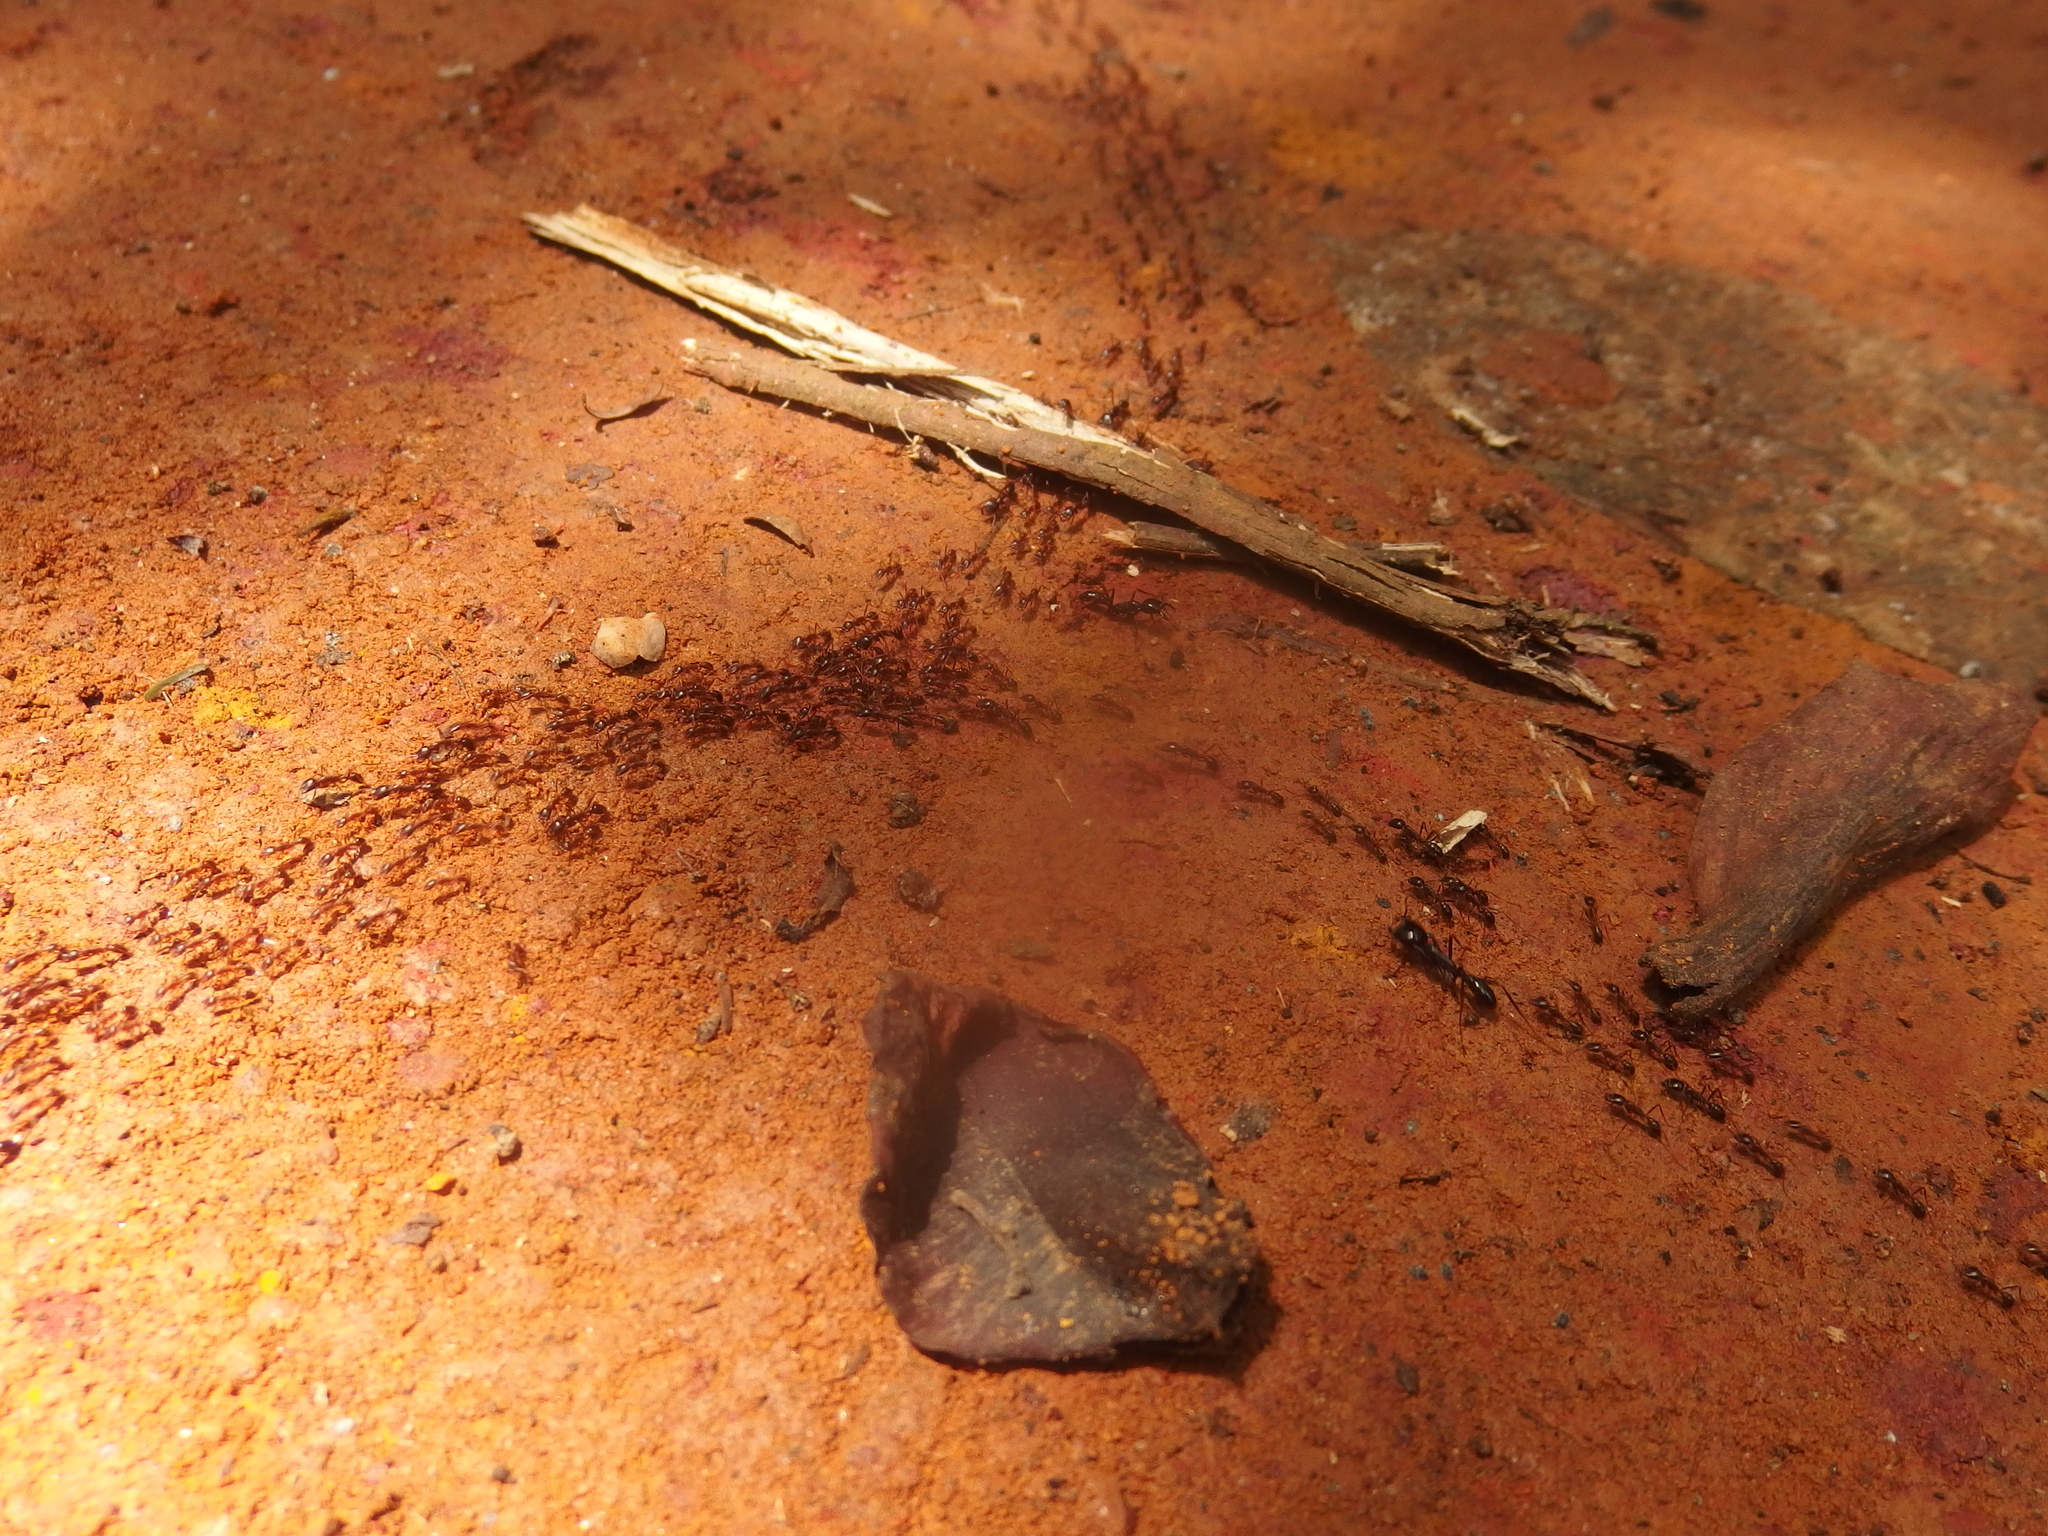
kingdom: Animalia
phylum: Arthropoda
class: Insecta
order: Hymenoptera
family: Formicidae
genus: Dorylus
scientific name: Dorylus
